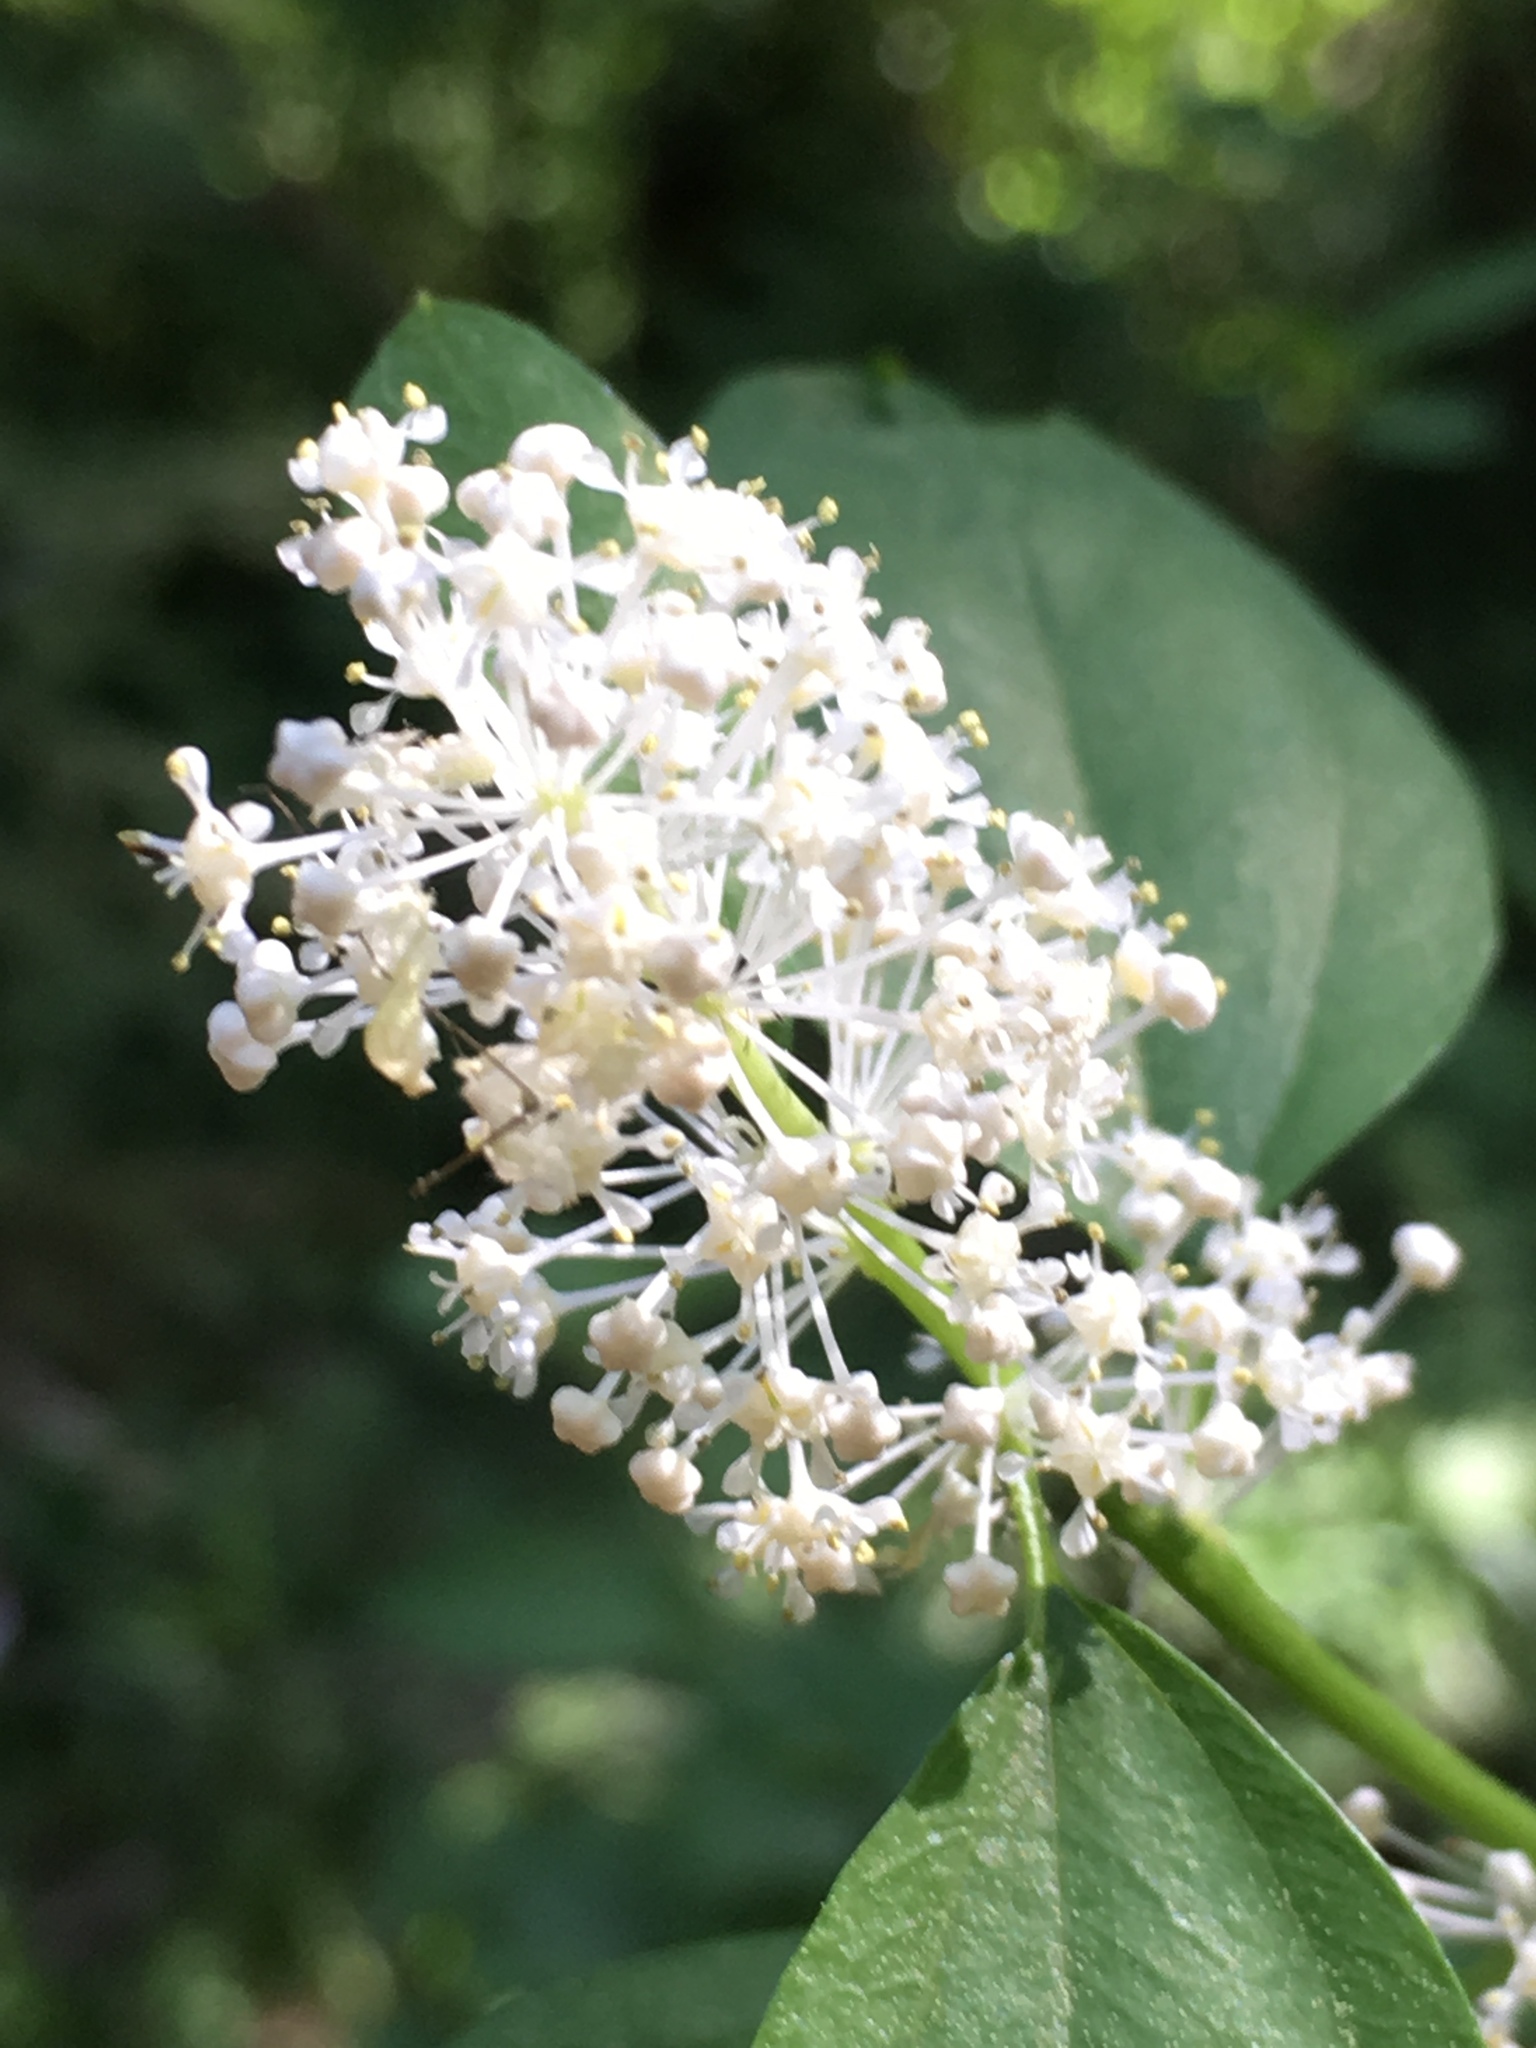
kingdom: Plantae
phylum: Tracheophyta
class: Magnoliopsida
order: Rosales
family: Rhamnaceae
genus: Ceanothus
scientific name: Ceanothus integerrimus
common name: Deerbrush ceanothus
